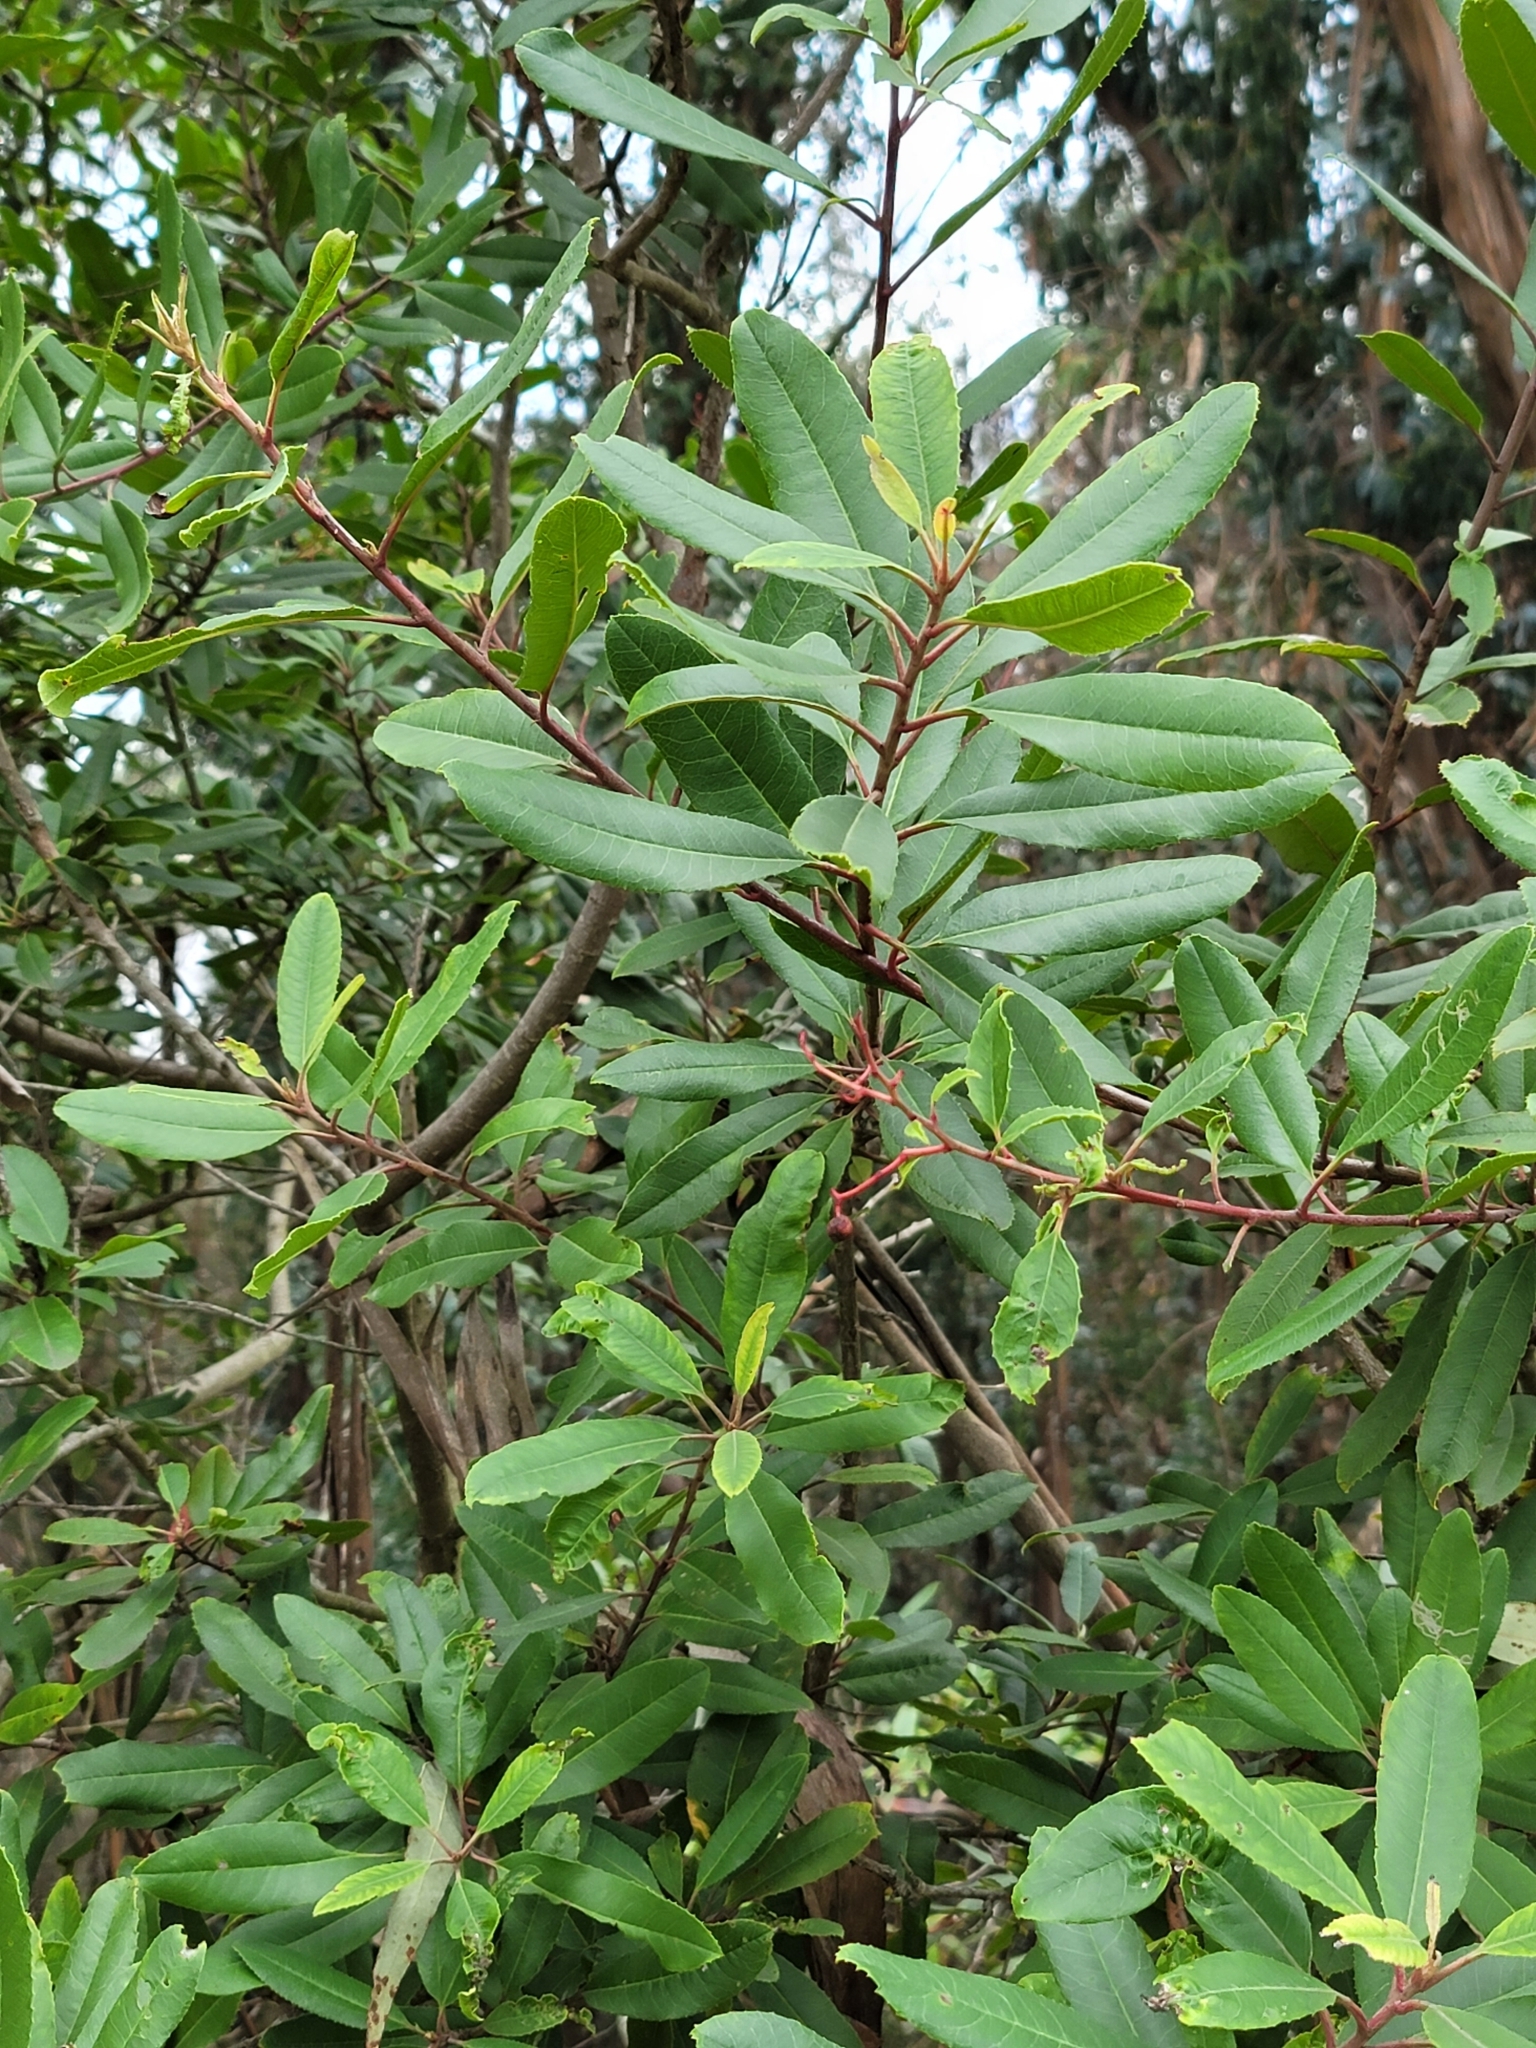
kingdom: Plantae
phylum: Tracheophyta
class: Magnoliopsida
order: Rosales
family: Rosaceae
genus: Heteromeles
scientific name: Heteromeles arbutifolia
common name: California-holly
